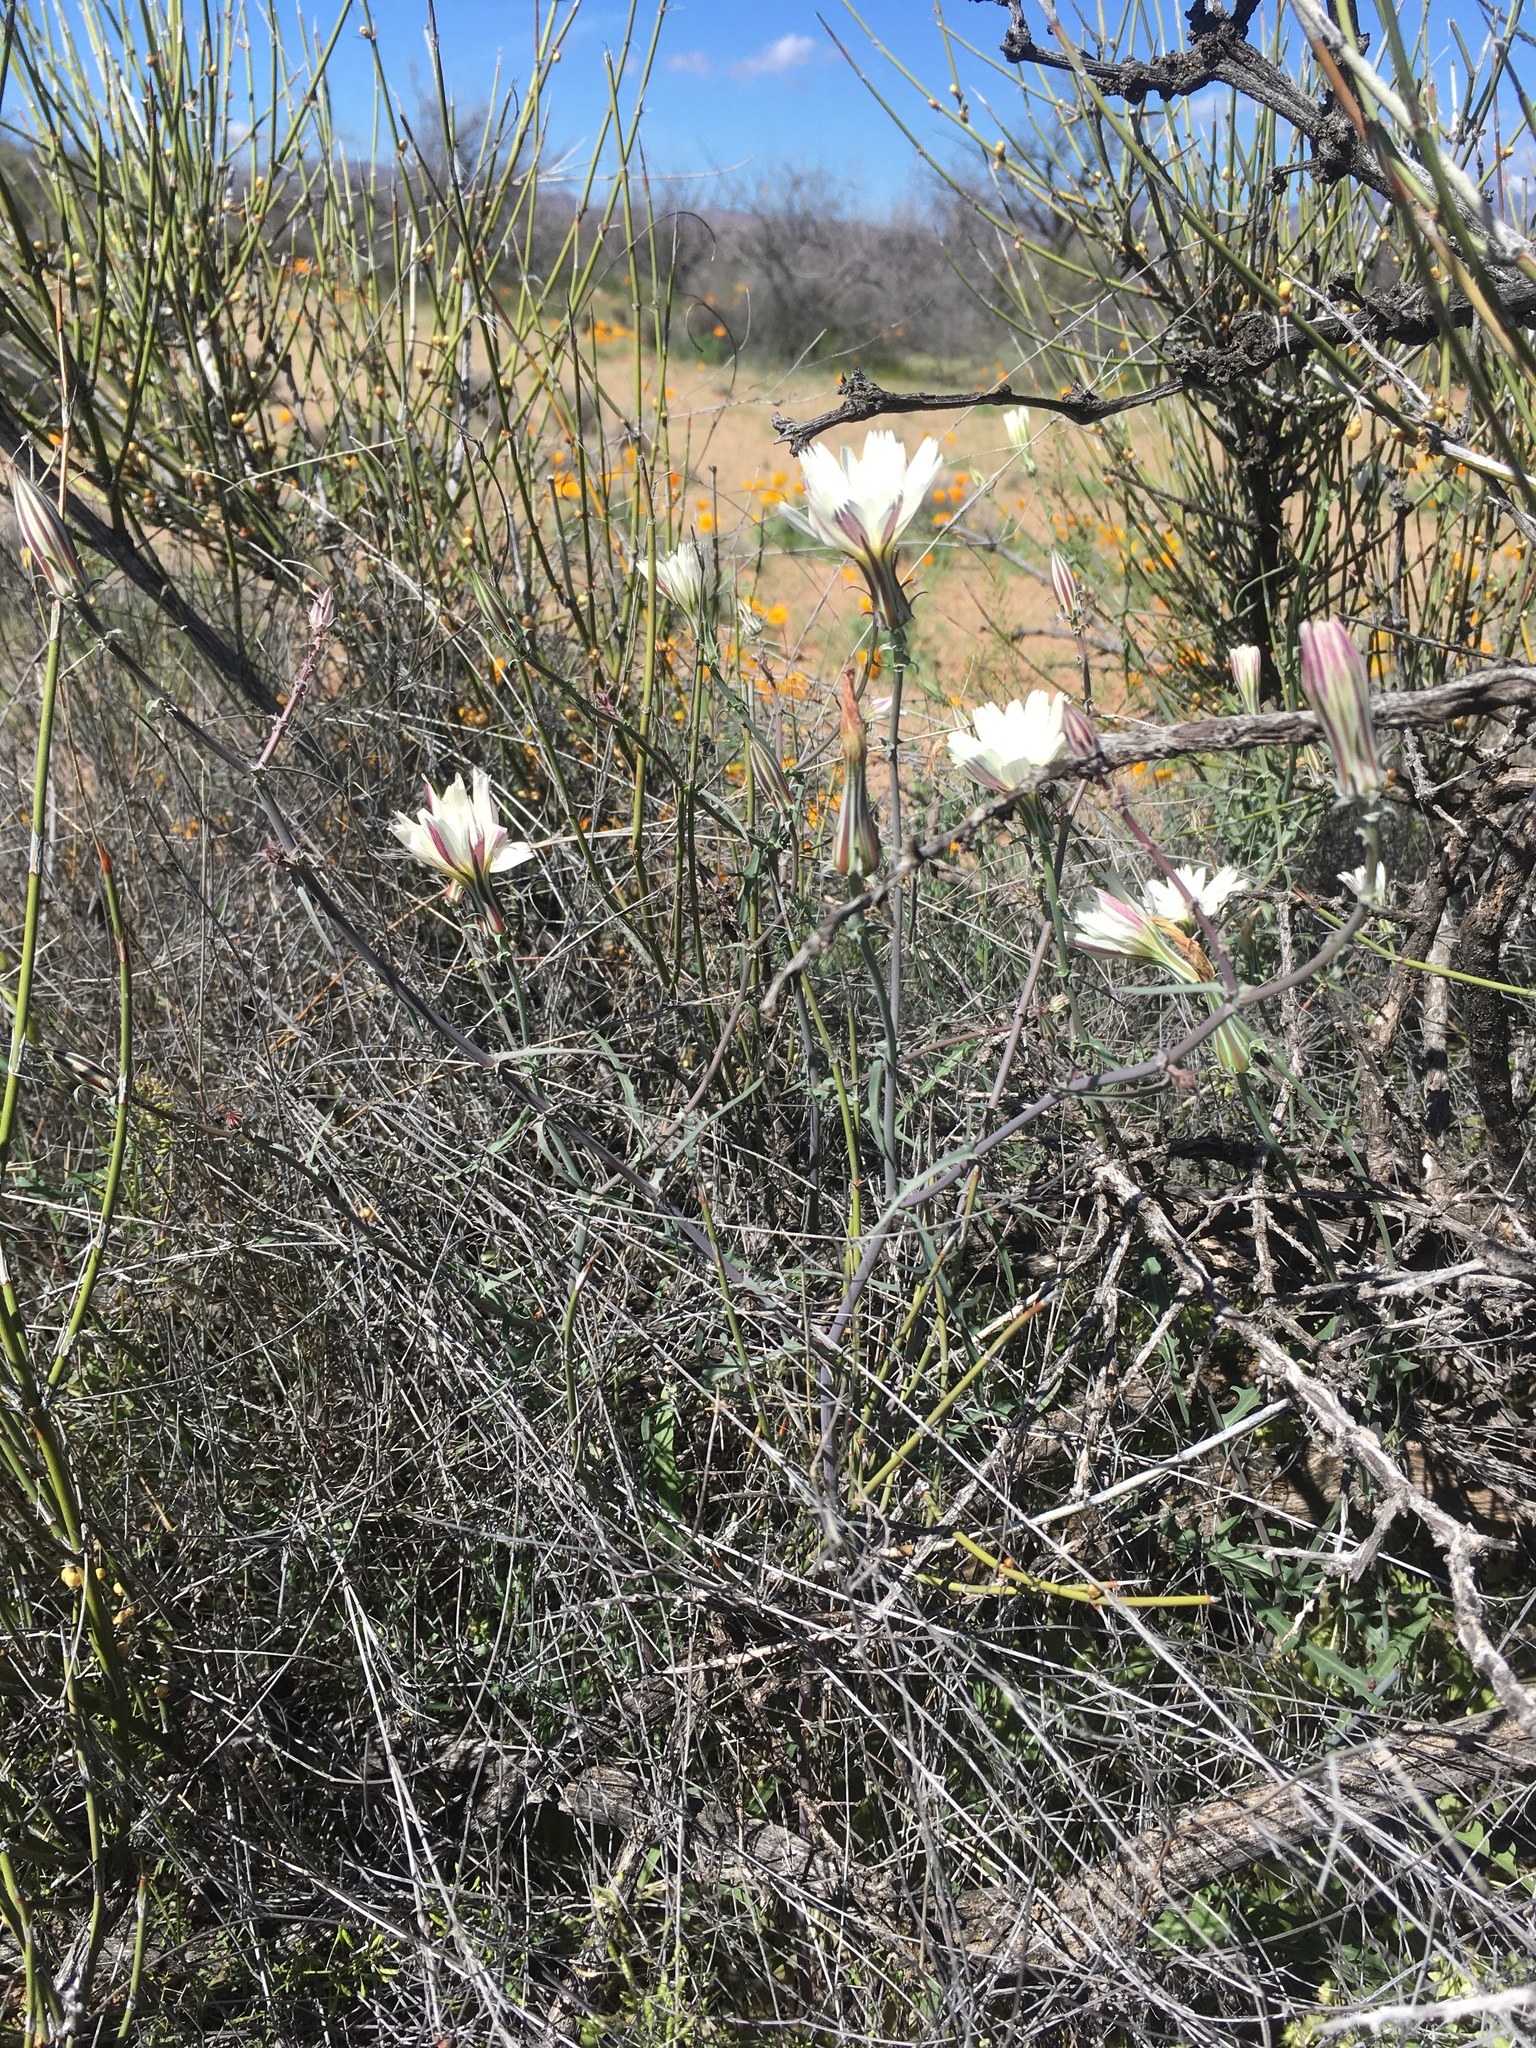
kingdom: Plantae
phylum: Tracheophyta
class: Magnoliopsida
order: Asterales
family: Asteraceae
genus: Rafinesquia
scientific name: Rafinesquia neomexicana
